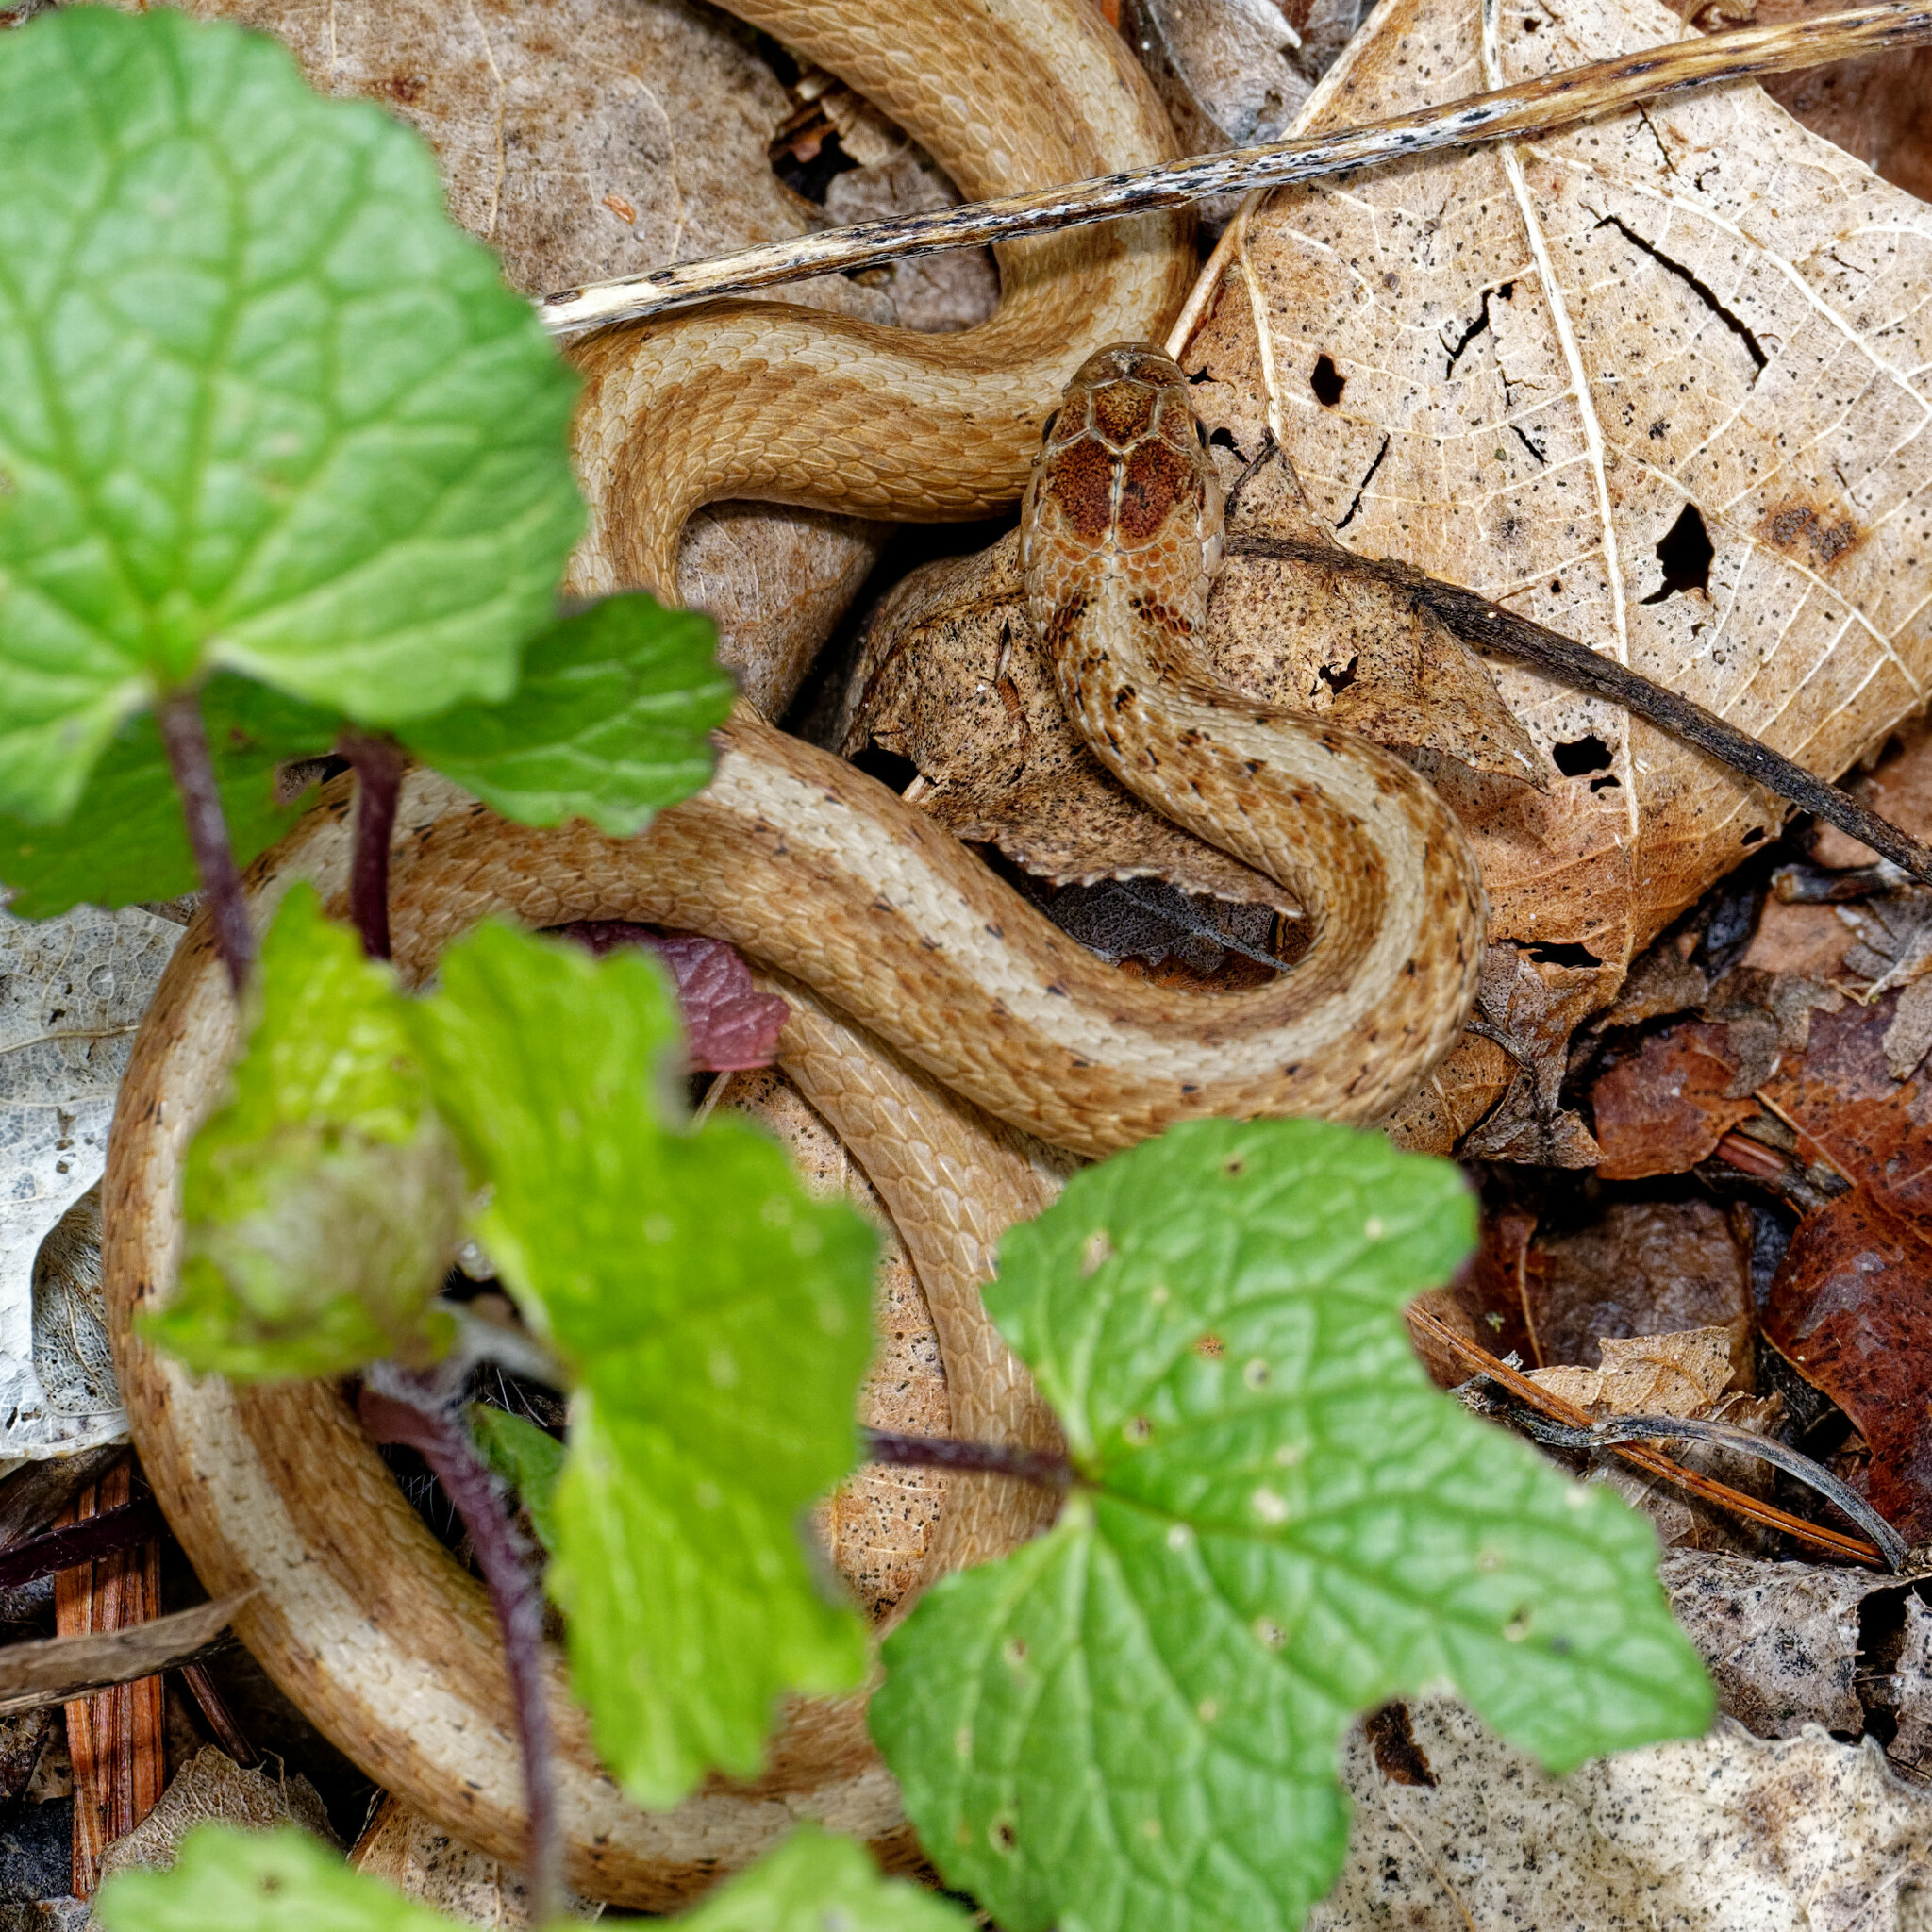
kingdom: Animalia
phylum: Chordata
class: Squamata
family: Colubridae
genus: Storeria
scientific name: Storeria dekayi
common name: (dekay’s) brown snake
